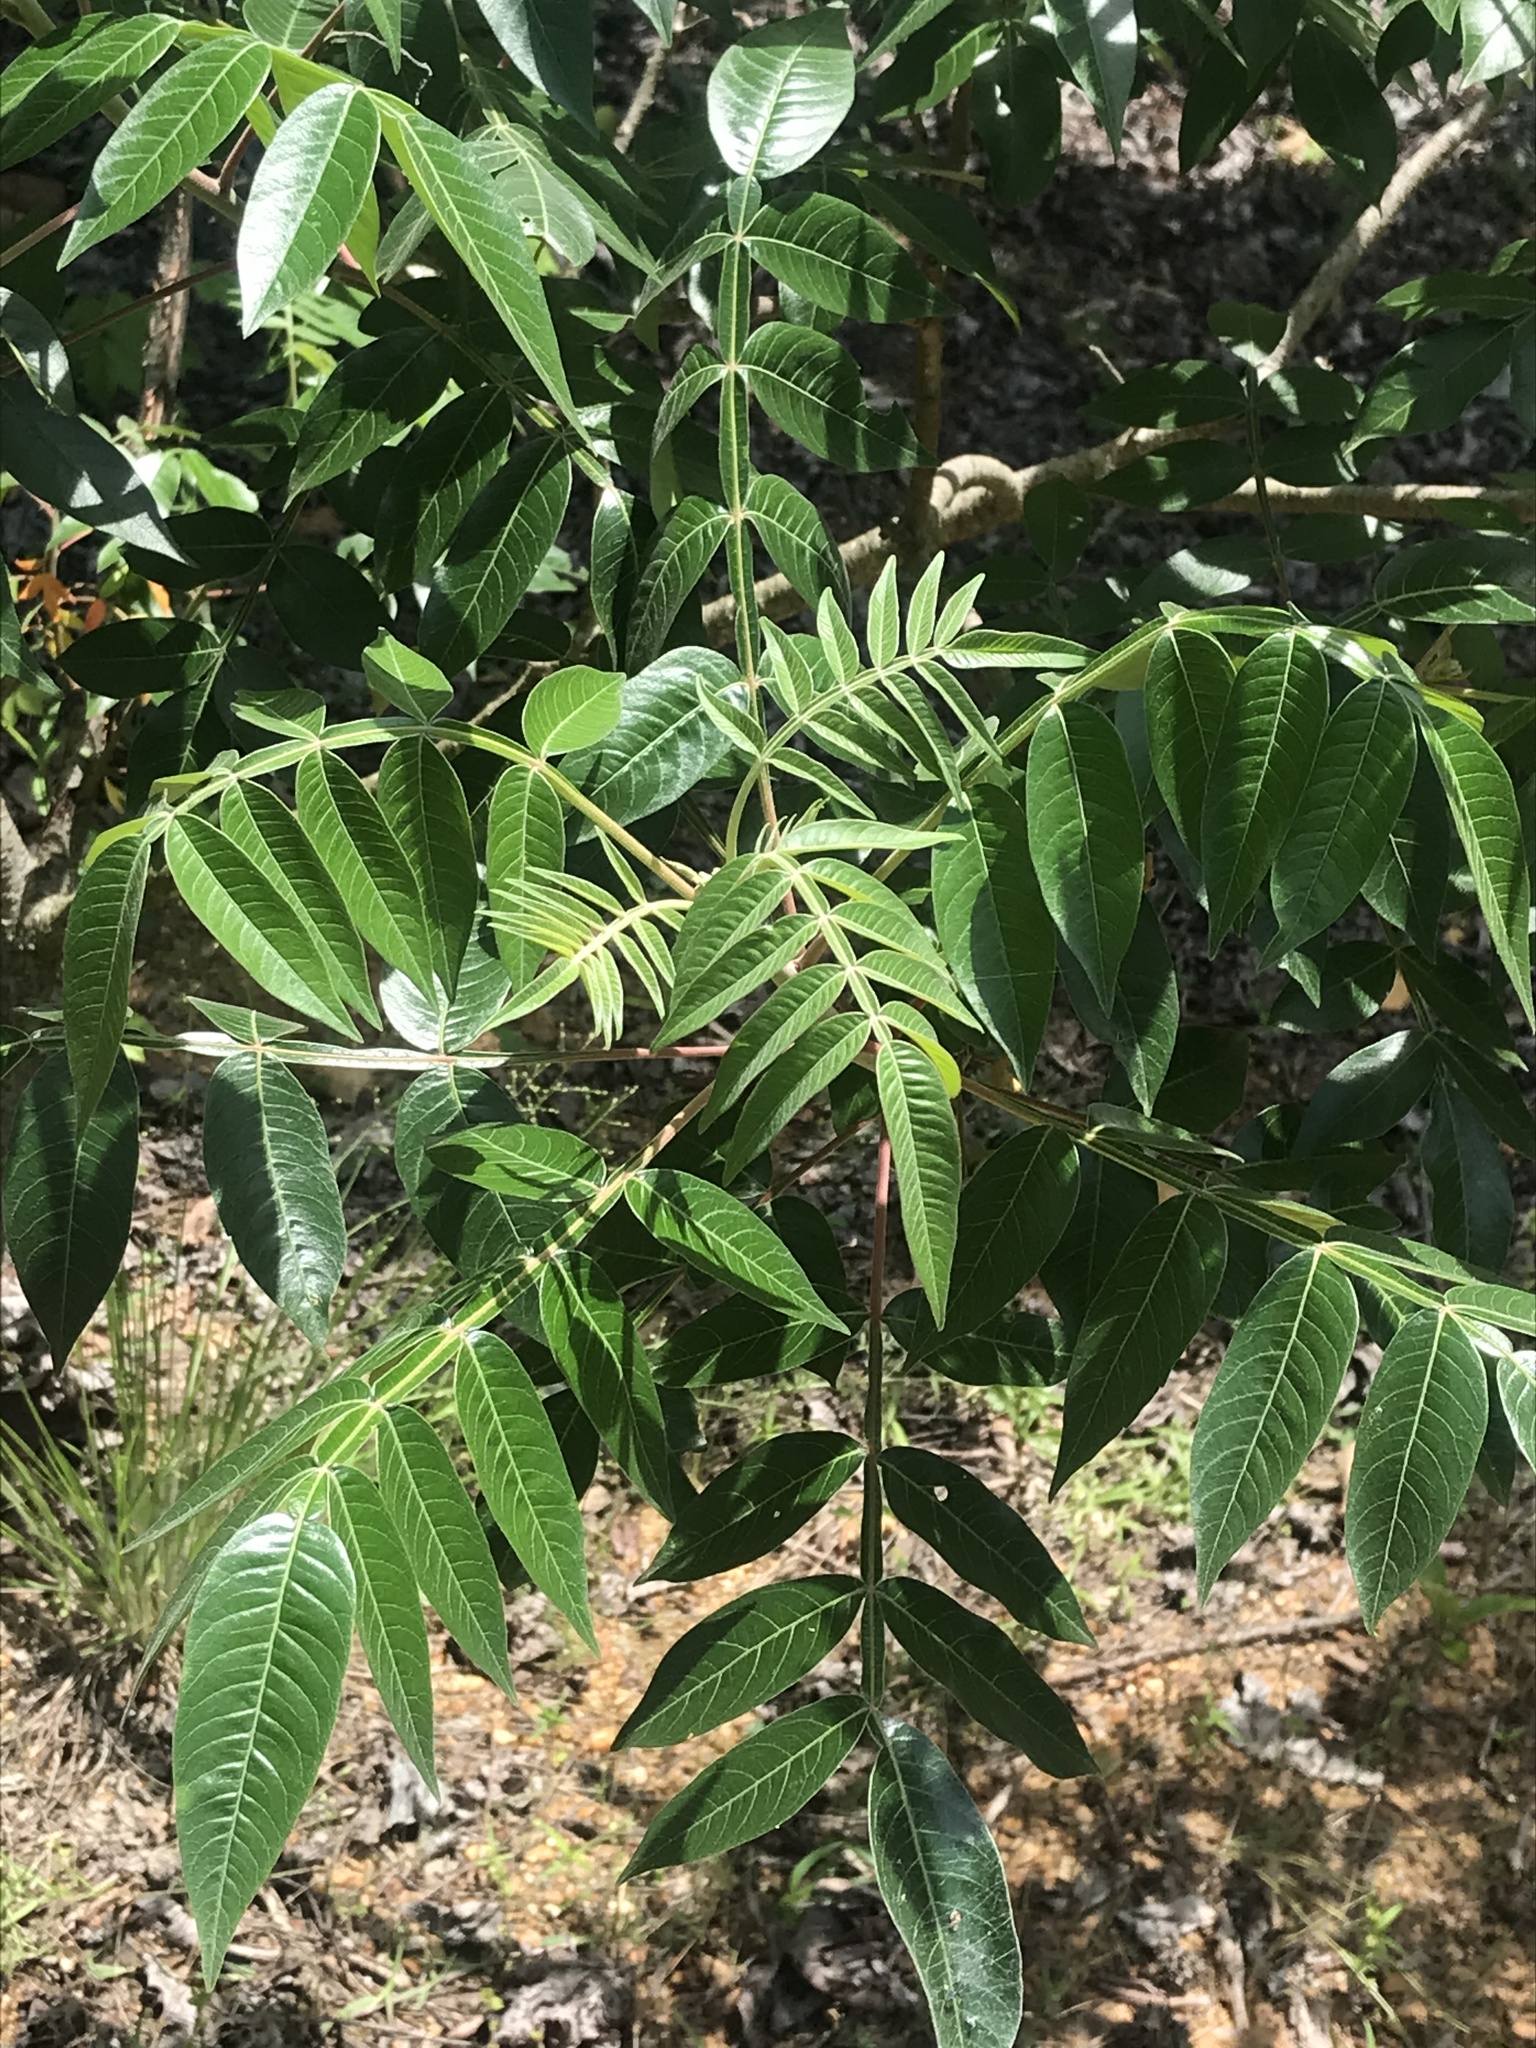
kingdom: Plantae
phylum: Tracheophyta
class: Magnoliopsida
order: Sapindales
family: Anacardiaceae
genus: Rhus
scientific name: Rhus copallina
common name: Shining sumac
